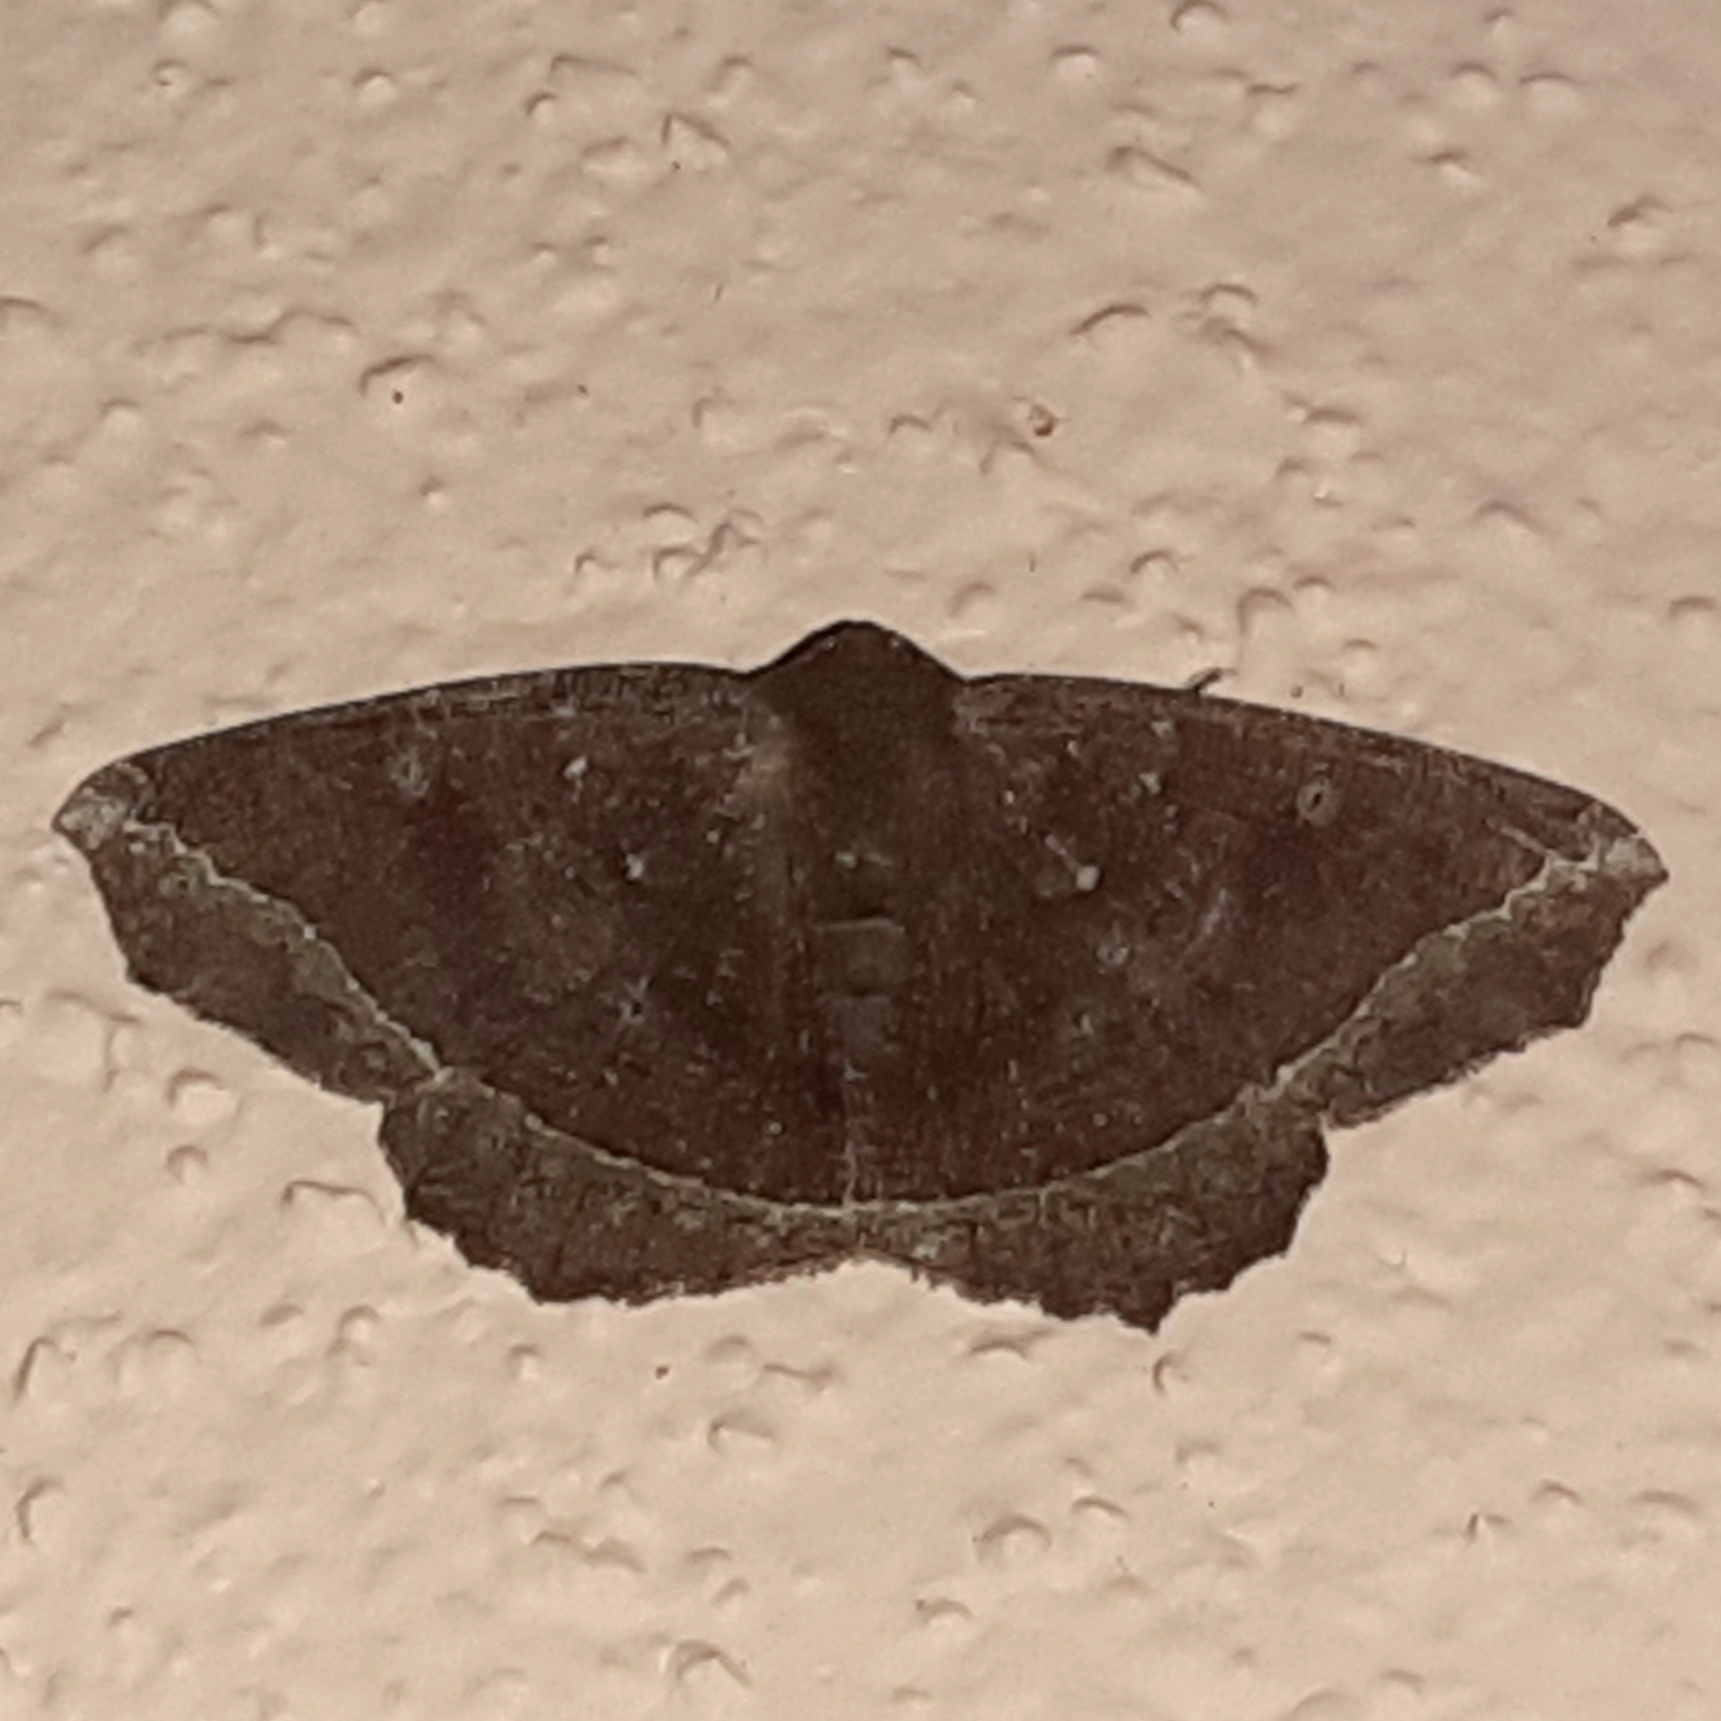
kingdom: Animalia
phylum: Arthropoda
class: Insecta
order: Lepidoptera
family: Geometridae
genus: Synnomos
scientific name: Synnomos firmamentaria
